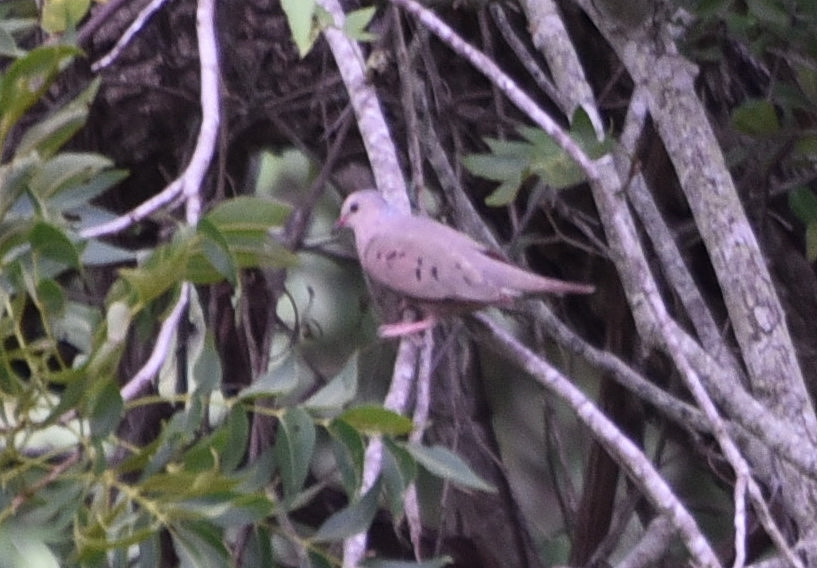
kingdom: Animalia
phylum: Chordata
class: Aves
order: Columbiformes
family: Columbidae
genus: Columbina
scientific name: Columbina passerina
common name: Common ground-dove
